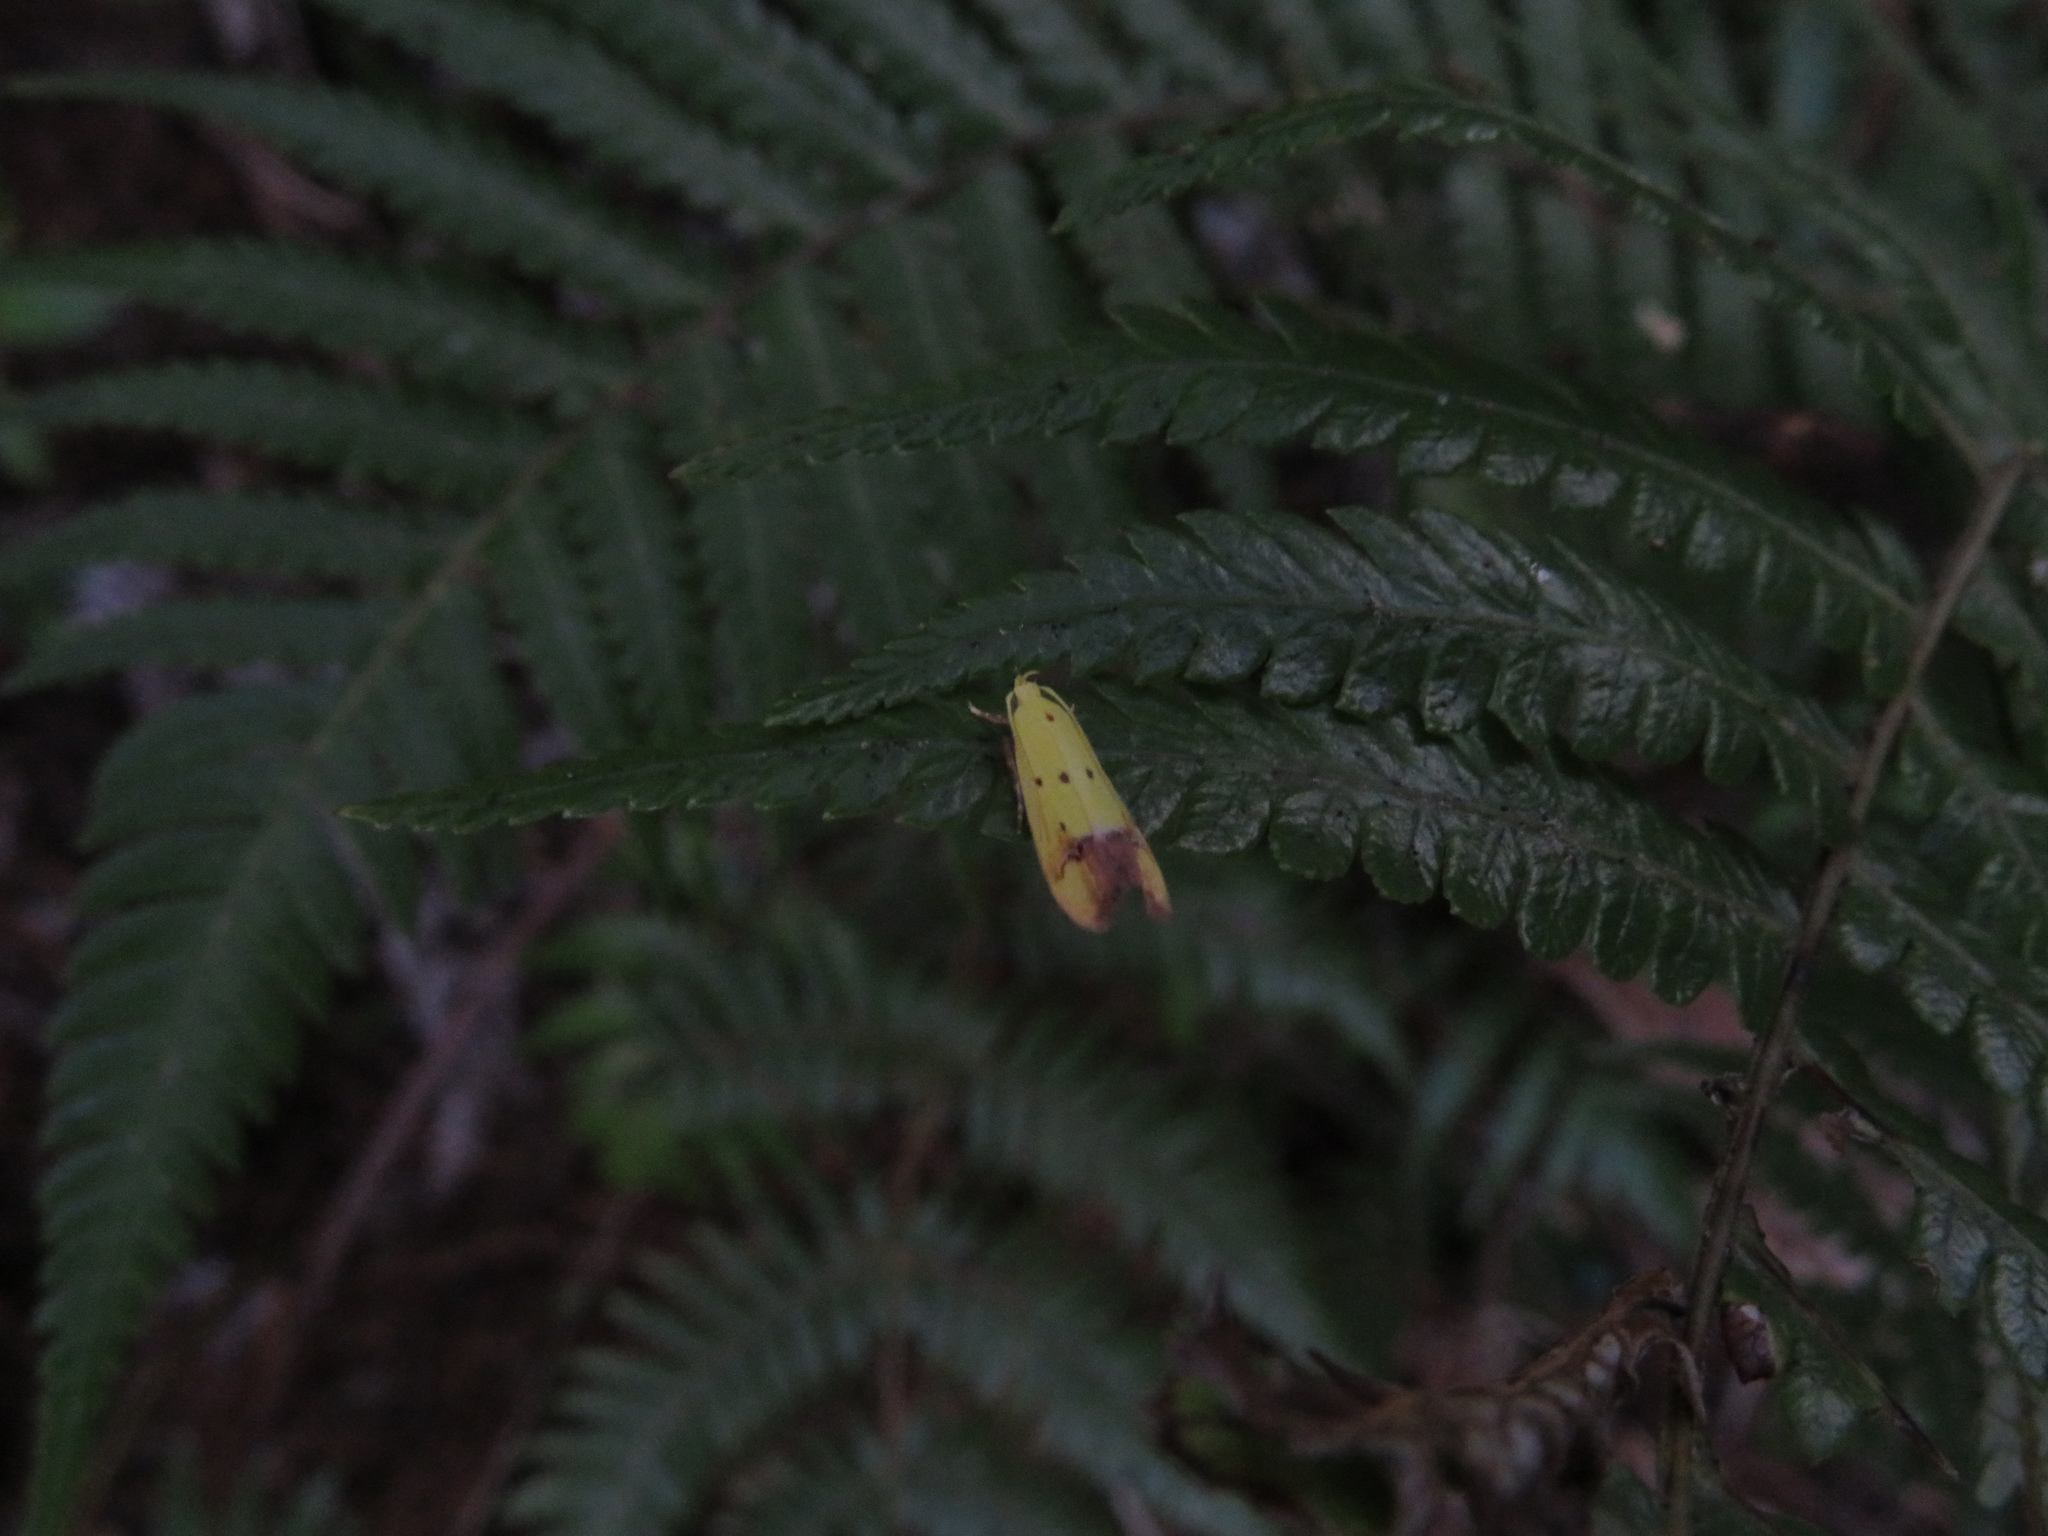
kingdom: Animalia
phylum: Arthropoda
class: Insecta
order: Lepidoptera
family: Oecophoridae
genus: Gymnobathra
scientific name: Gymnobathra flavidella
